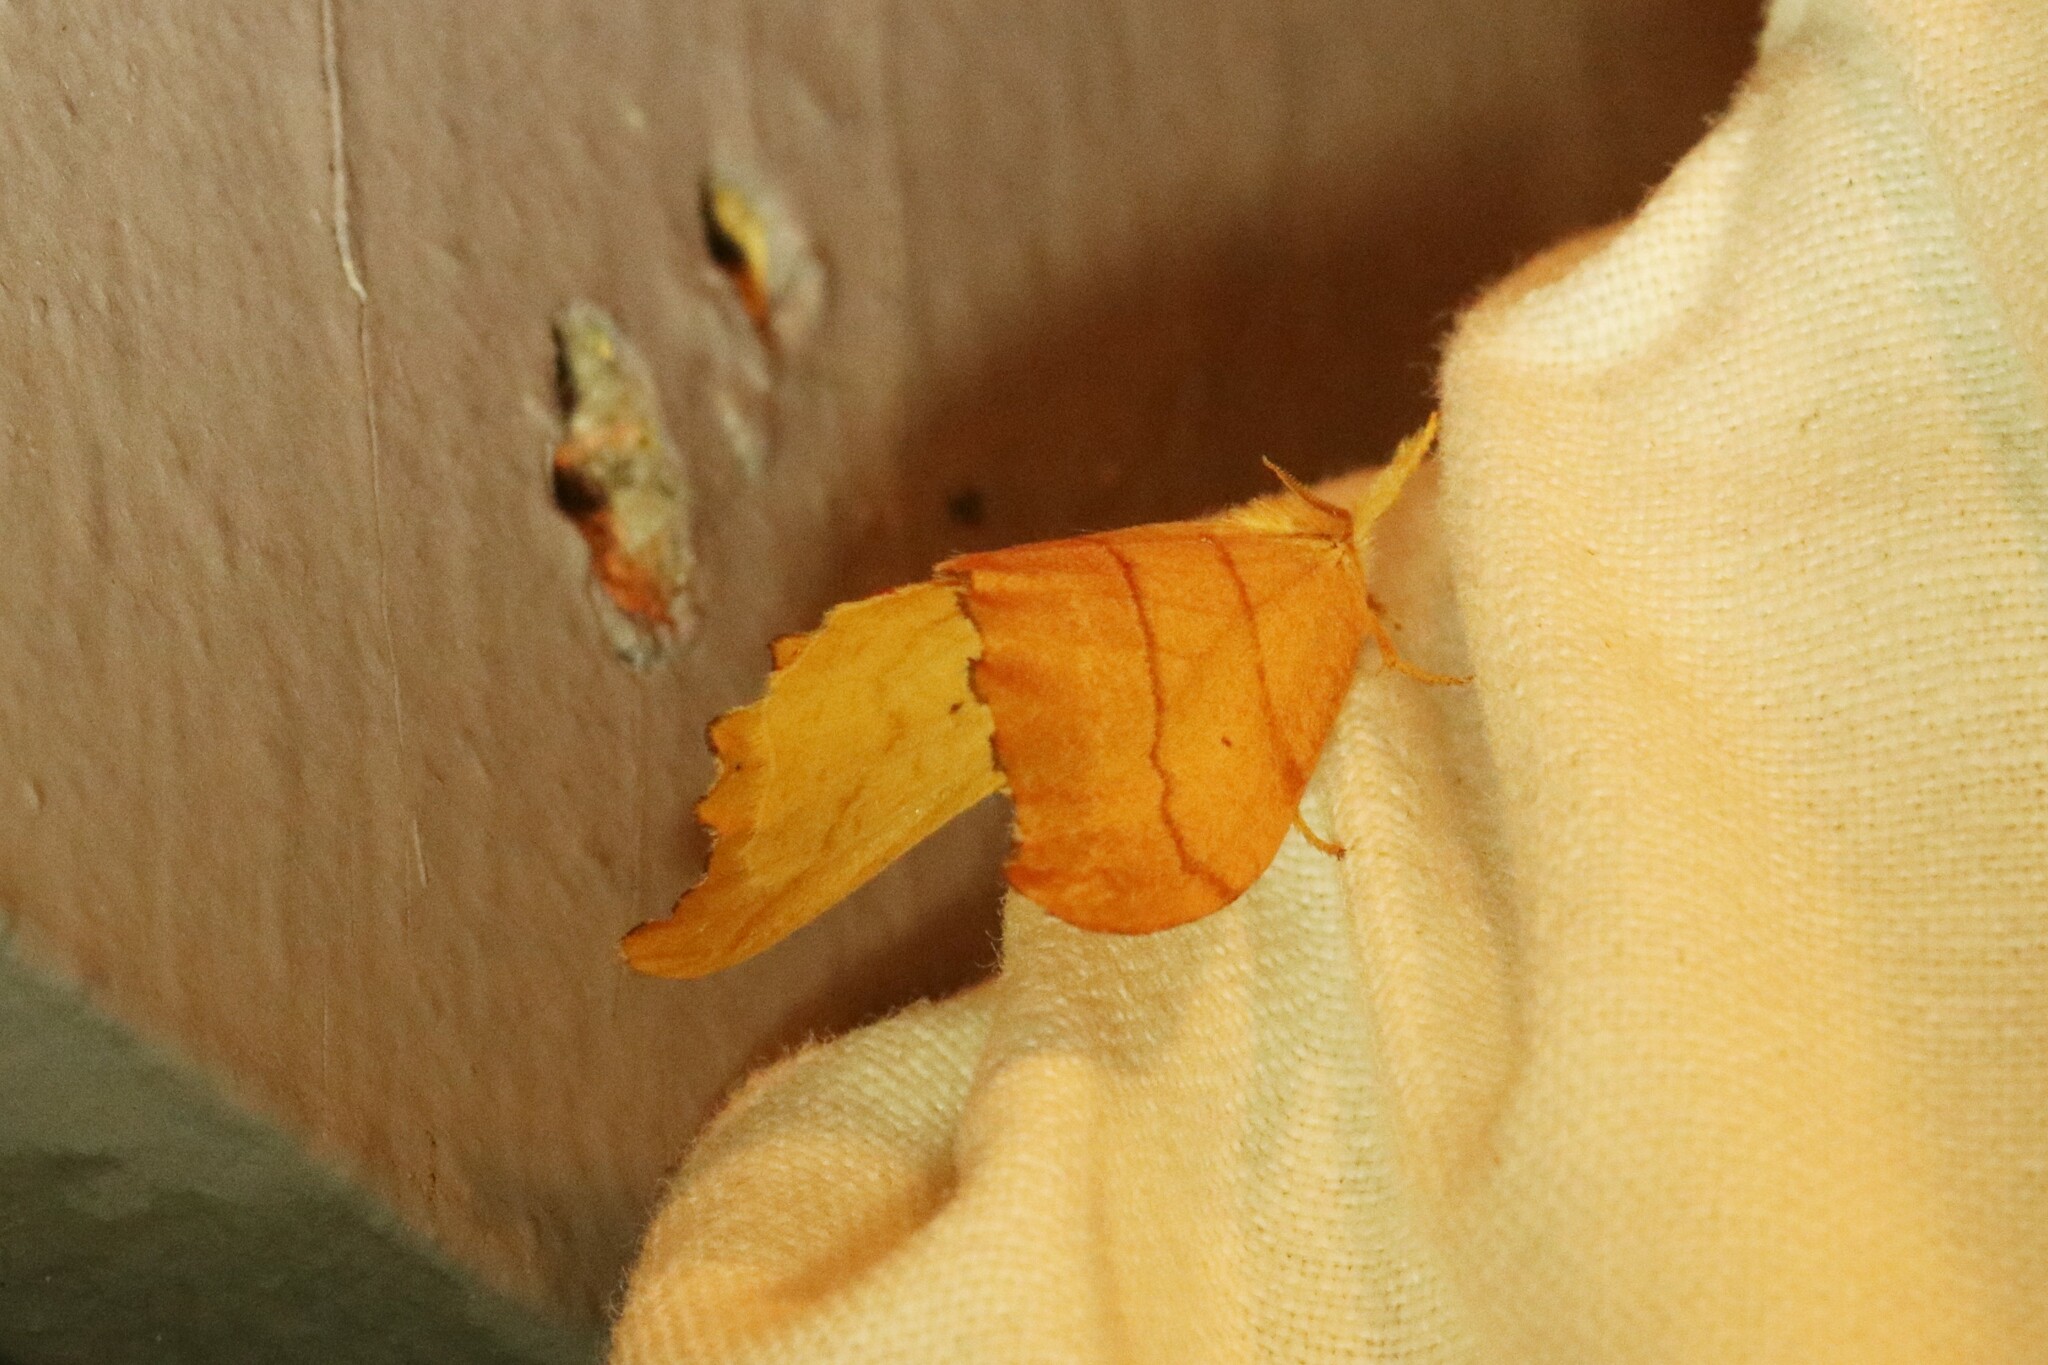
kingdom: Animalia
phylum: Arthropoda
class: Insecta
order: Lepidoptera
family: Drepanidae
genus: Falcaria
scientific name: Falcaria bilineata
